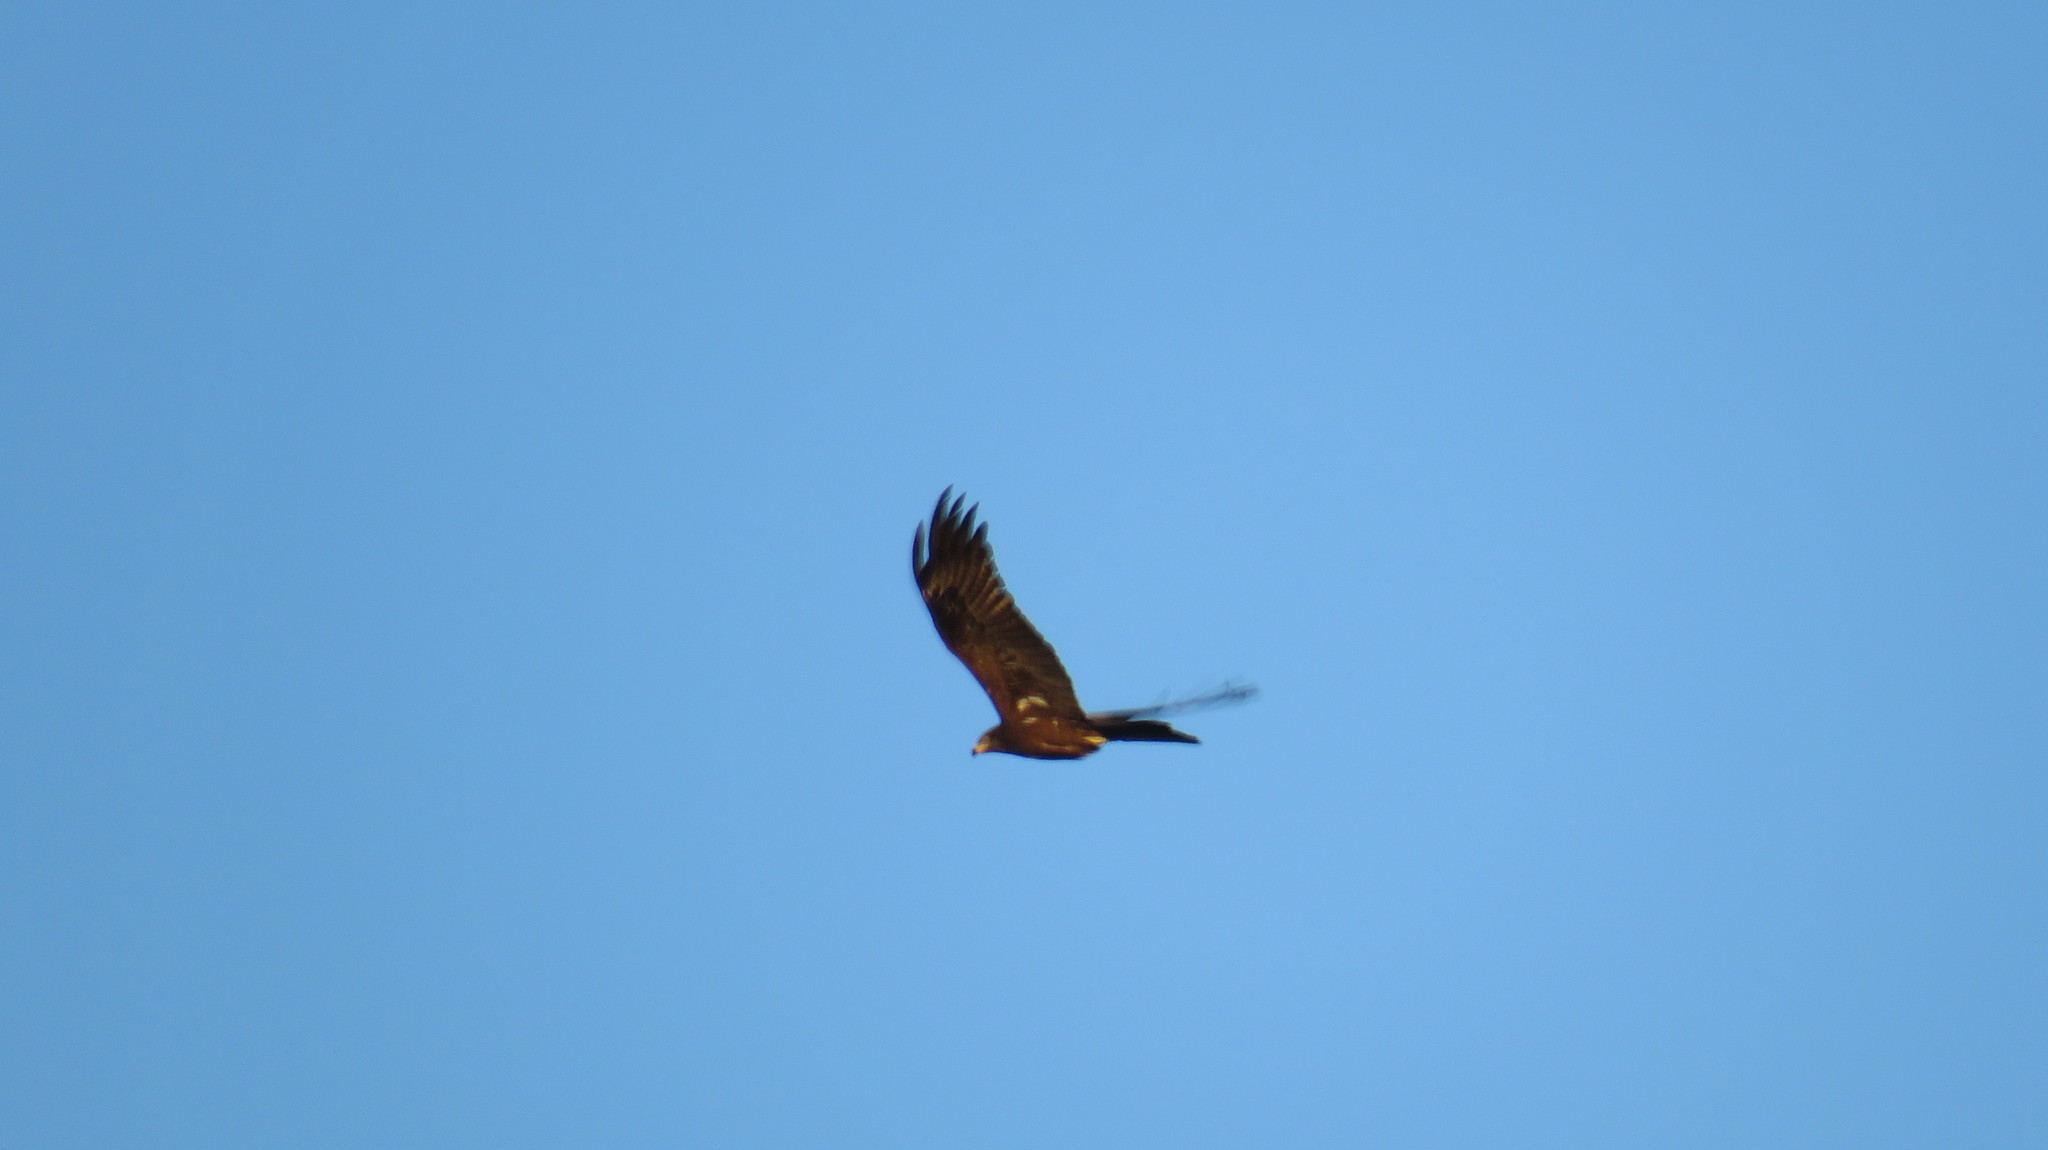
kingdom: Animalia
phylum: Chordata
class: Aves
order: Accipitriformes
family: Accipitridae
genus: Milvus
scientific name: Milvus migrans
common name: Black kite
